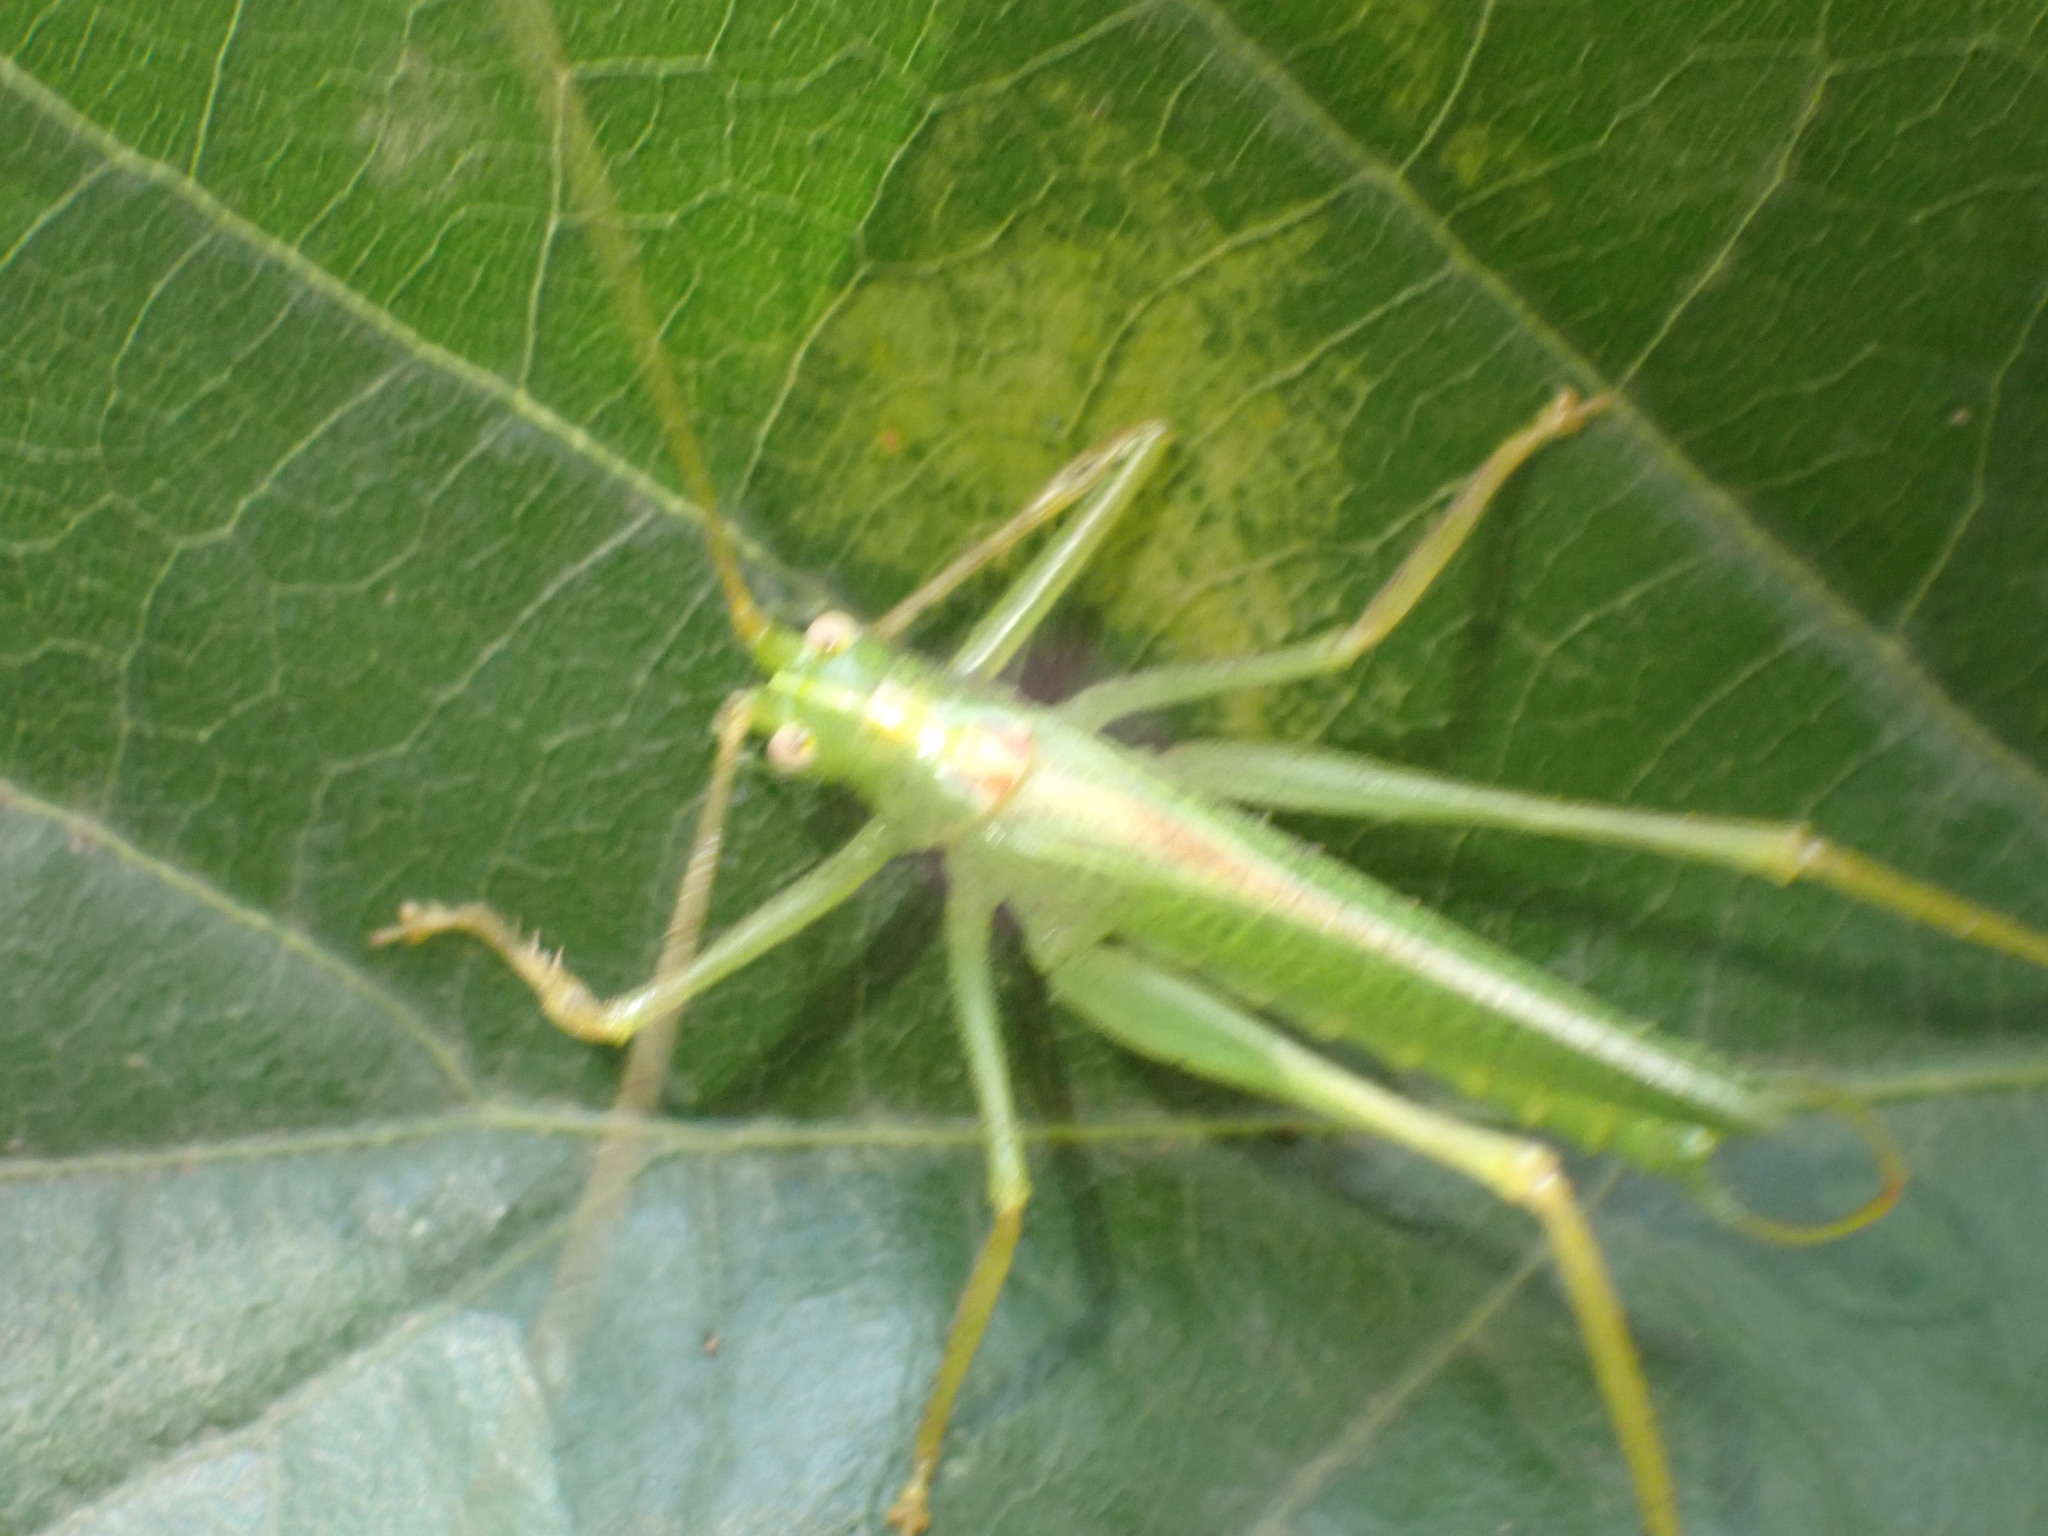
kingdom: Animalia
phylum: Arthropoda
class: Insecta
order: Orthoptera
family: Tettigoniidae
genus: Meconema
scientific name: Meconema thalassinum
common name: Oak bush-cricket
